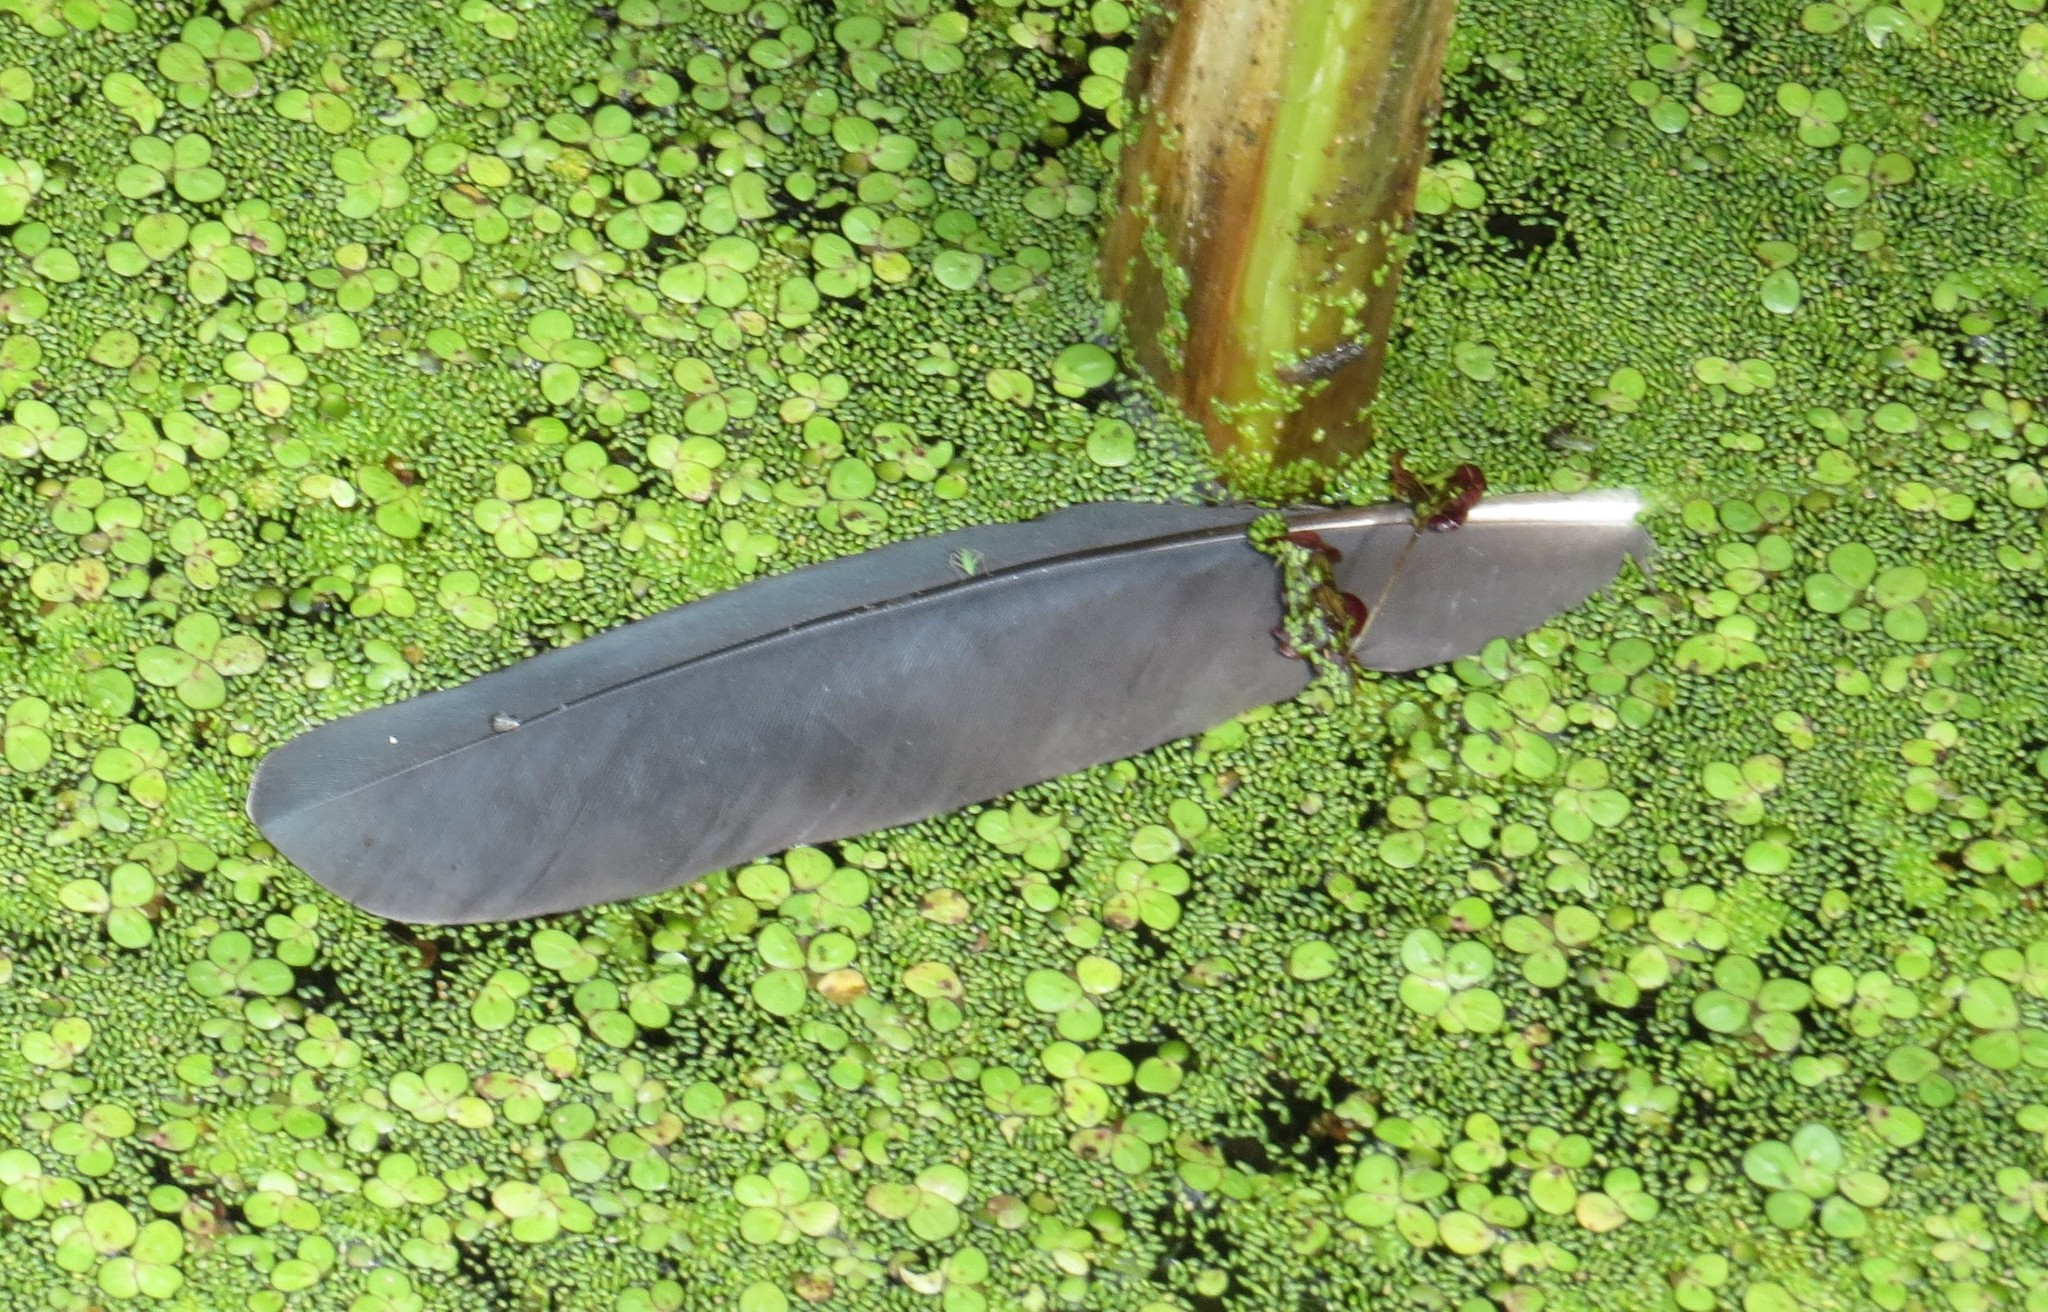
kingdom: Animalia
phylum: Chordata
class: Aves
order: Pelecaniformes
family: Ardeidae
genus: Ardea
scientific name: Ardea herodias
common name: Great blue heron
